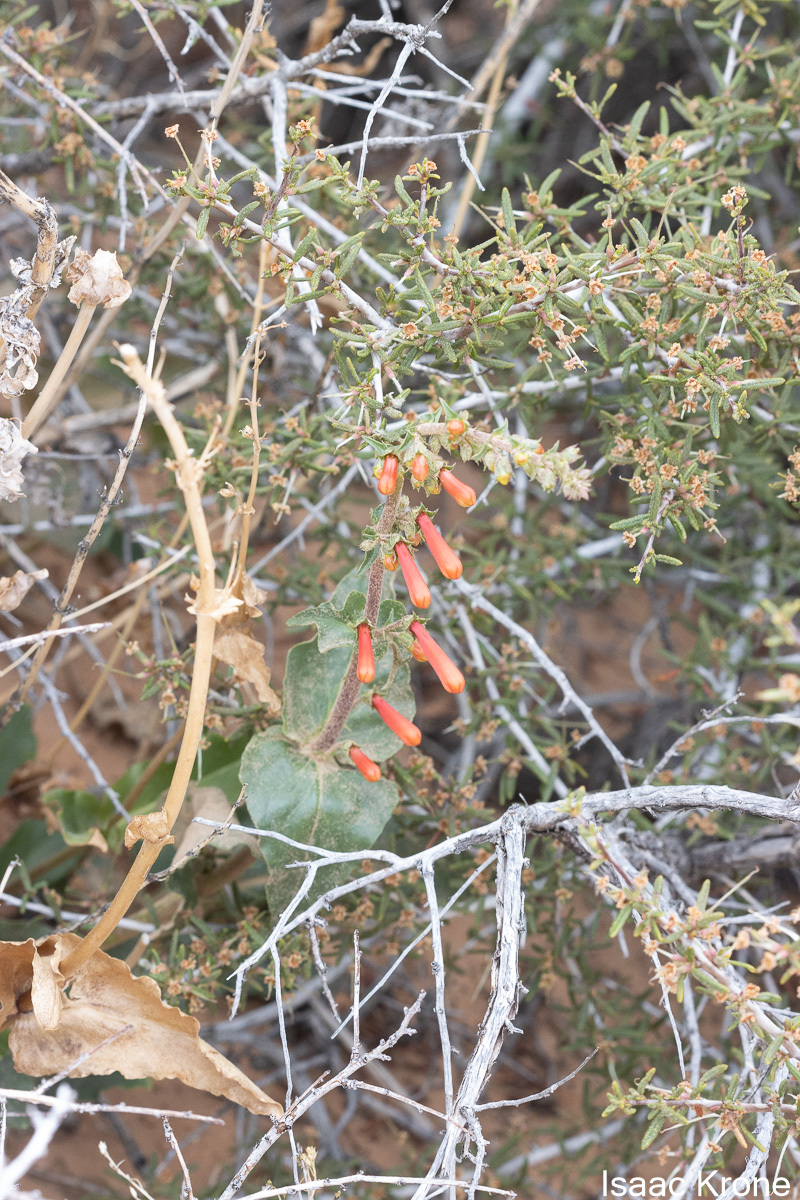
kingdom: Plantae
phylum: Tracheophyta
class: Magnoliopsida
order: Lamiales
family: Plantaginaceae
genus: Penstemon
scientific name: Penstemon eatonii
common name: Eaton's penstemon
